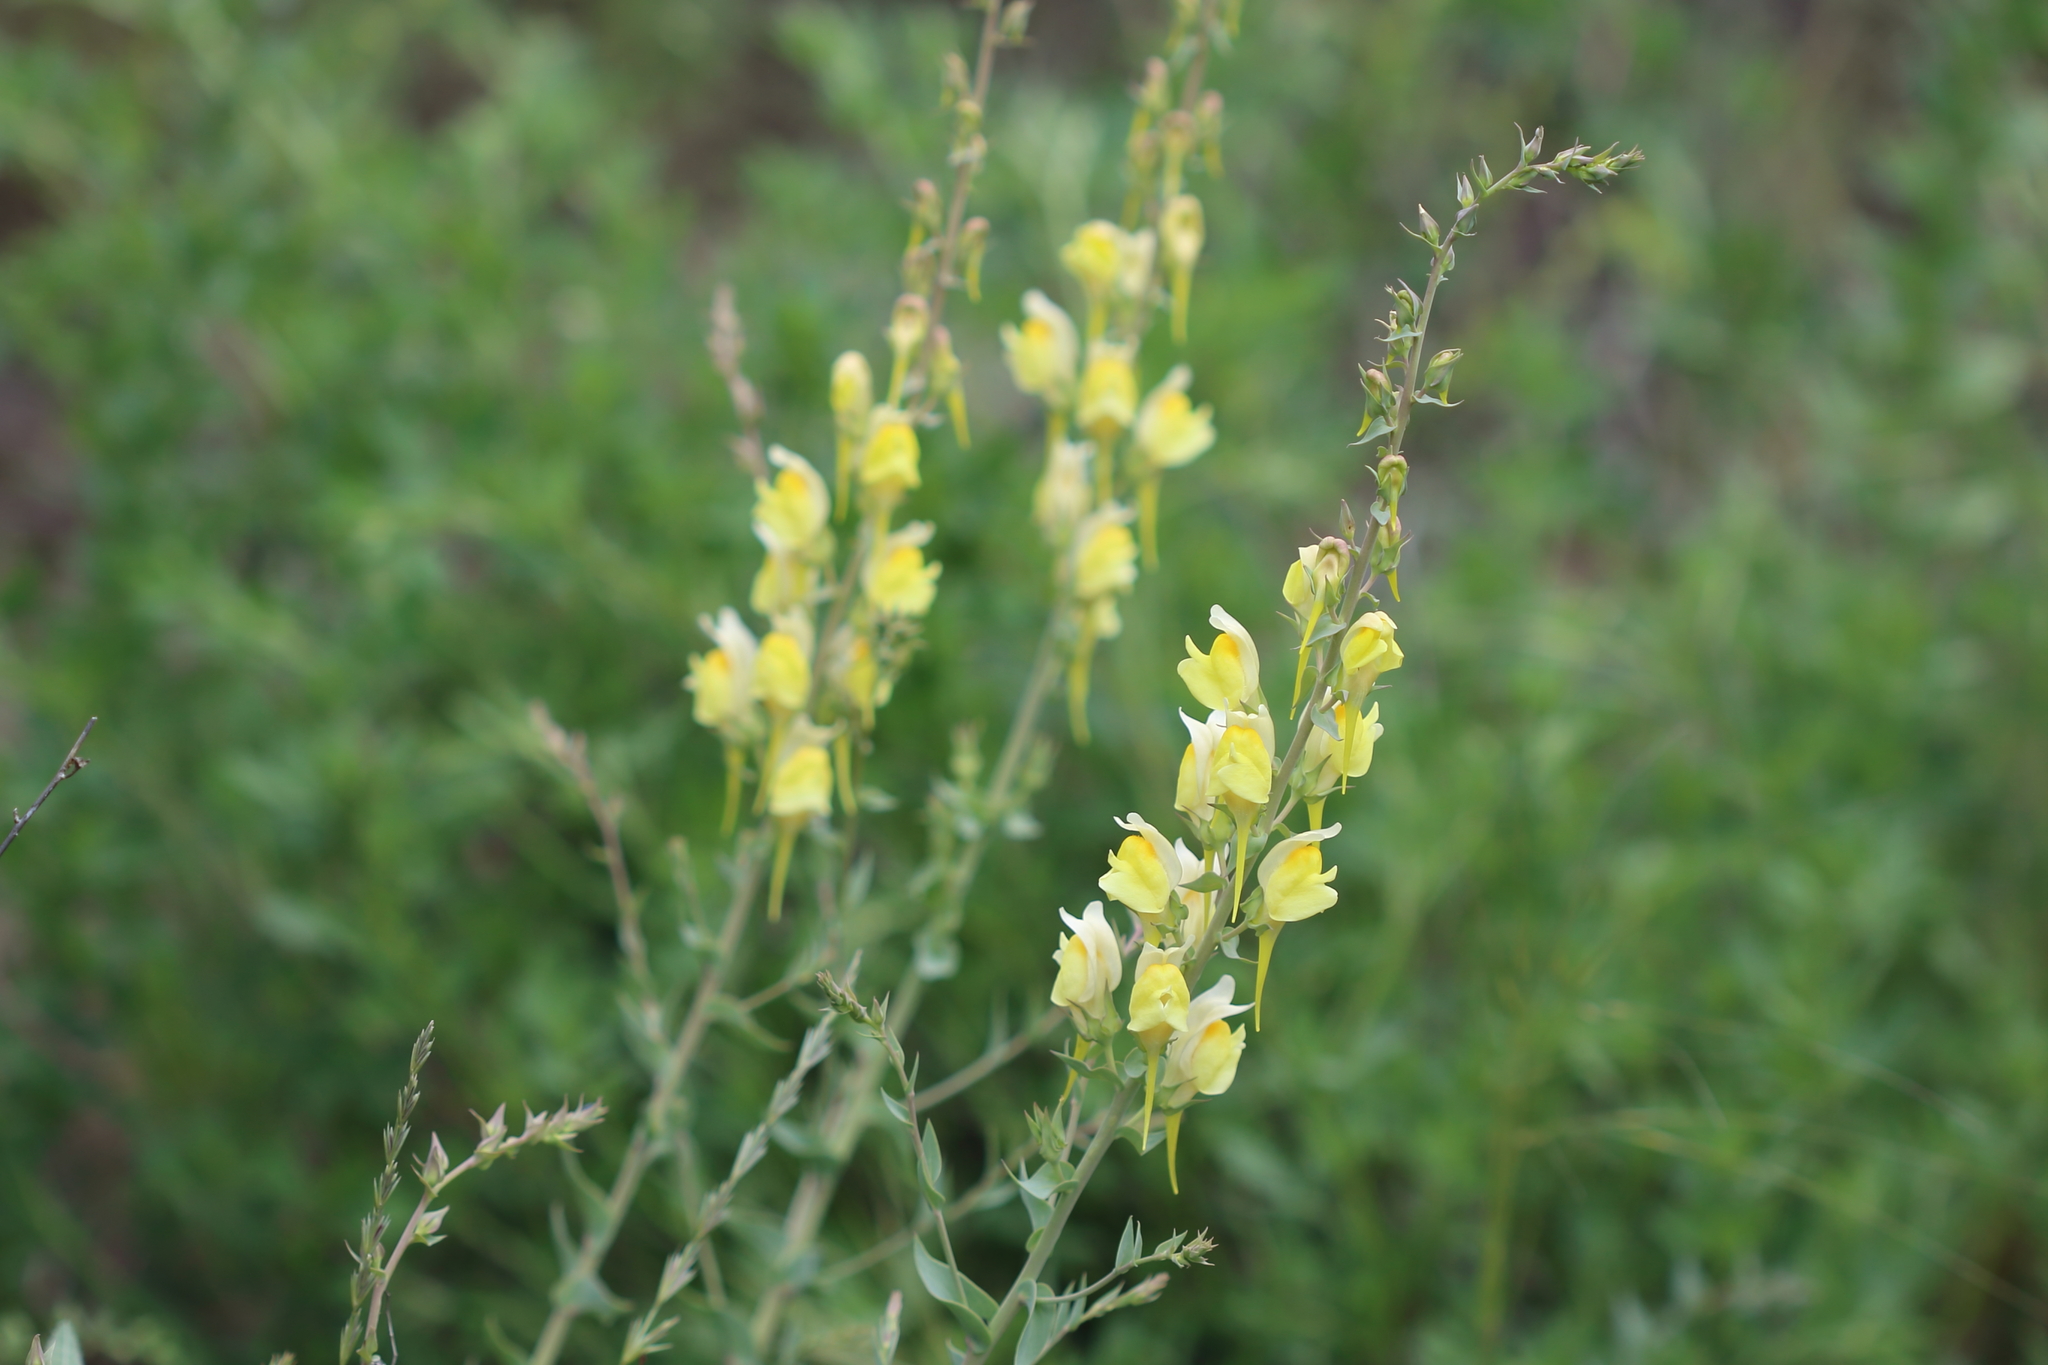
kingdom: Plantae
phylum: Tracheophyta
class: Magnoliopsida
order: Lamiales
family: Plantaginaceae
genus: Linaria
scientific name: Linaria dalmatica
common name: Dalmatian toadflax
